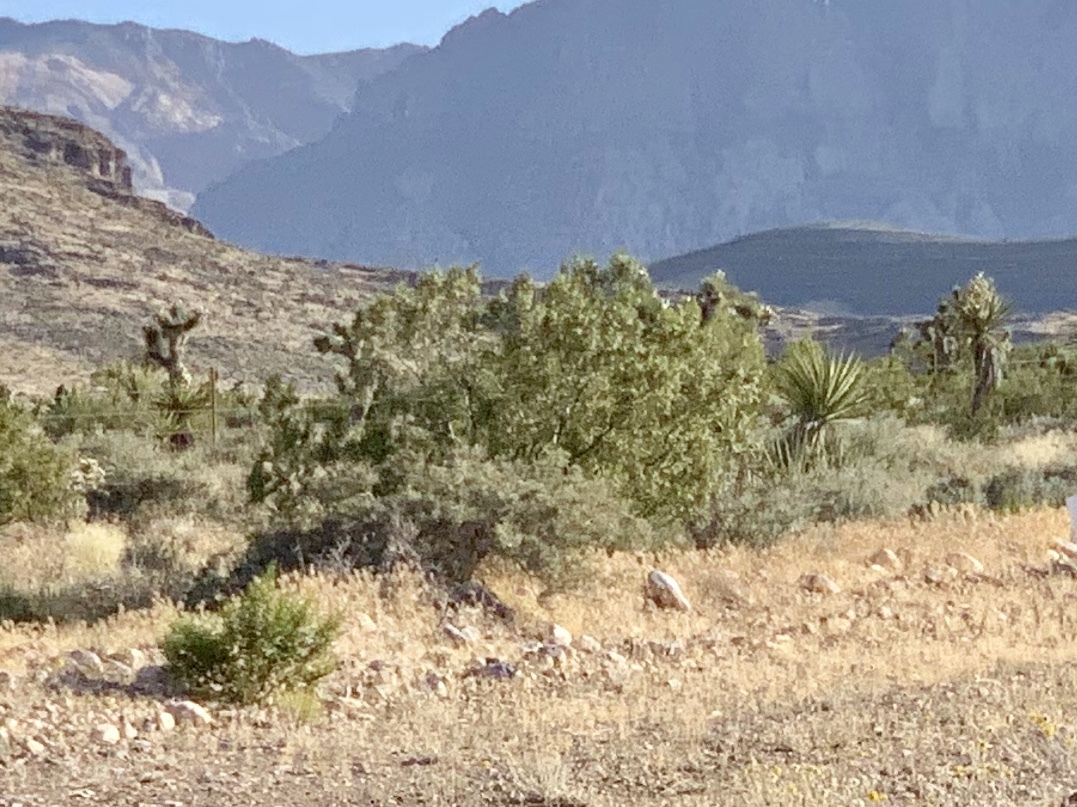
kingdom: Plantae
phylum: Tracheophyta
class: Magnoliopsida
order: Zygophyllales
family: Zygophyllaceae
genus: Larrea
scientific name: Larrea tridentata
